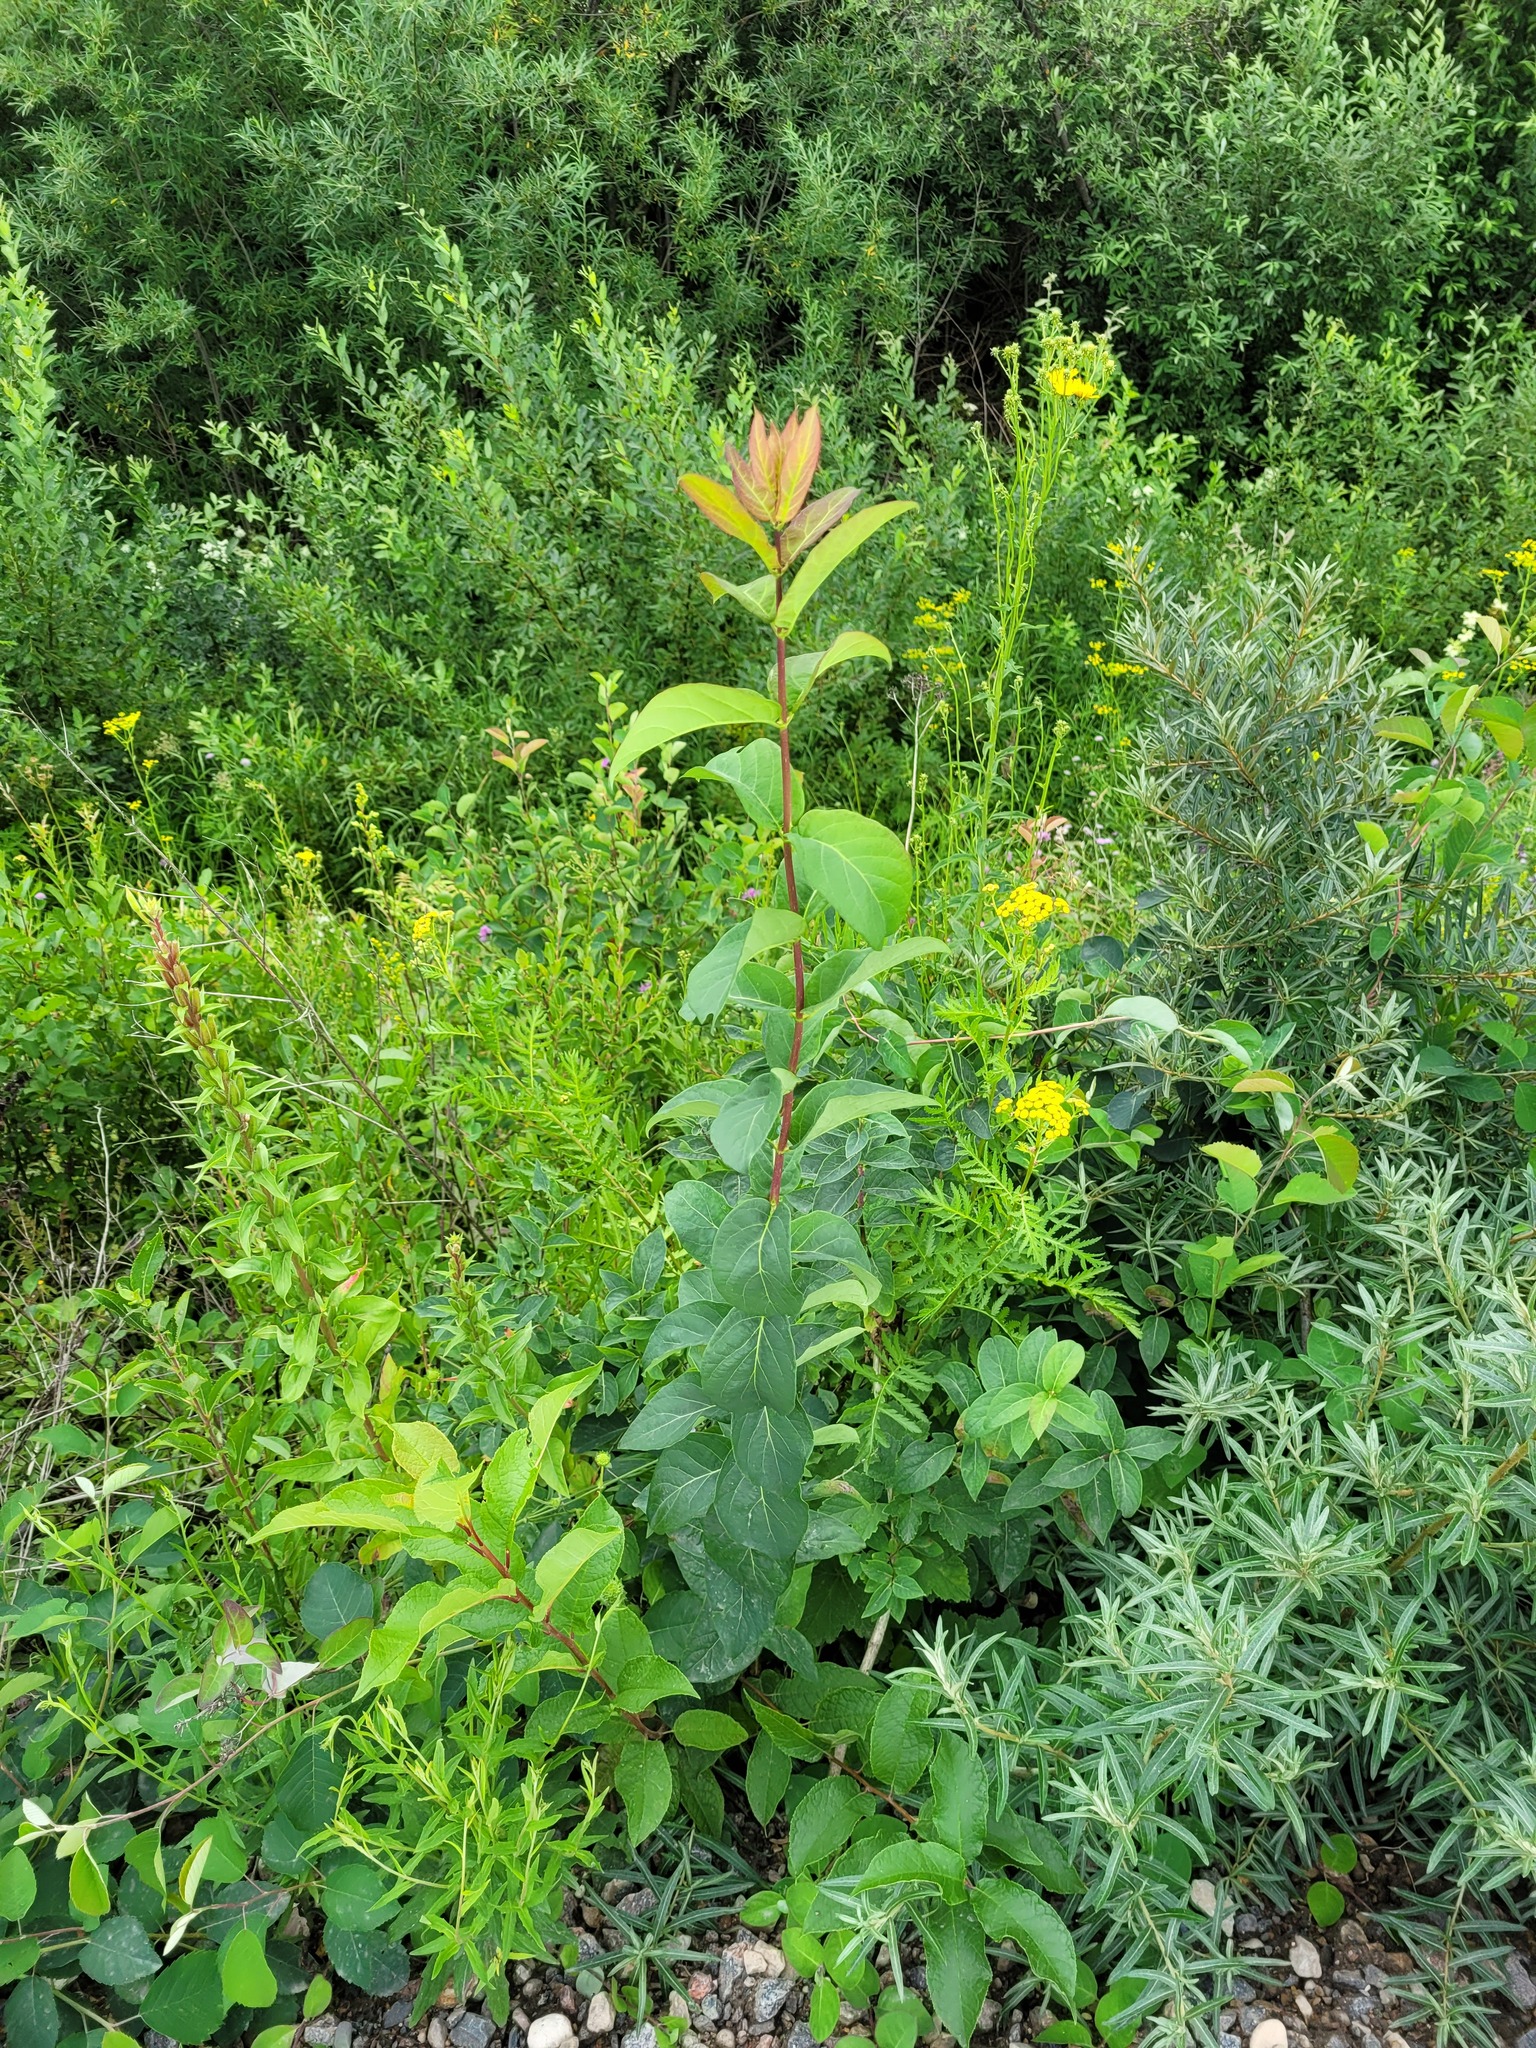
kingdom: Plantae
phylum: Tracheophyta
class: Magnoliopsida
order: Dipsacales
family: Caprifoliaceae
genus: Lonicera
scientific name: Lonicera tatarica
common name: Tatarian honeysuckle
